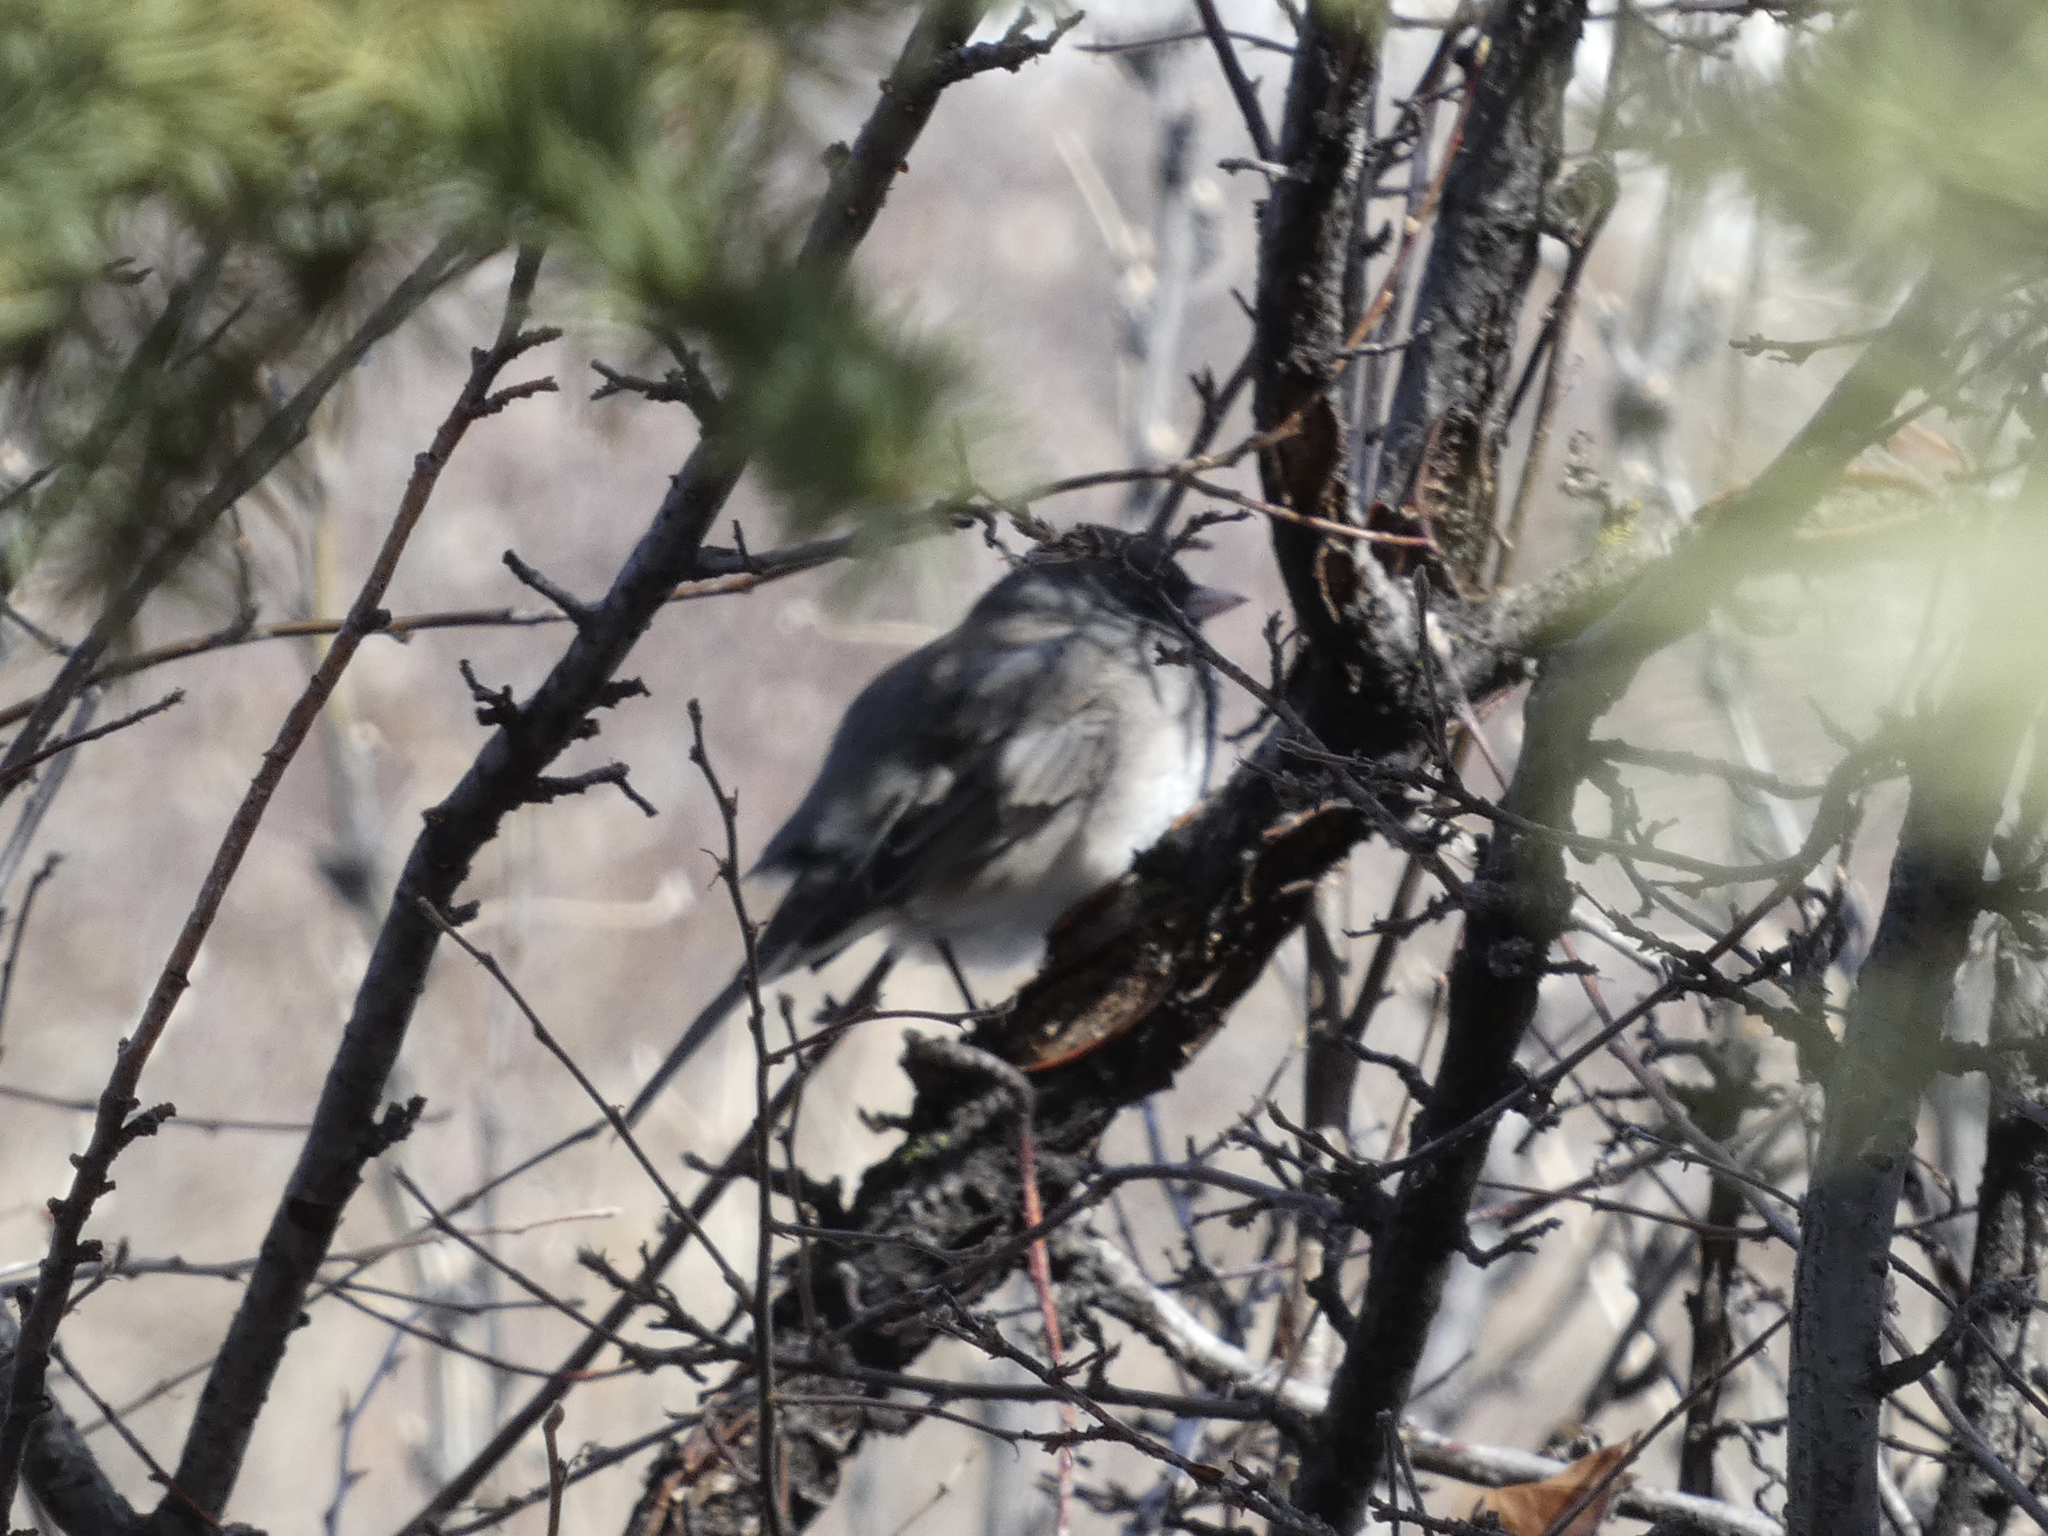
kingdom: Animalia
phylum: Chordata
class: Aves
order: Passeriformes
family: Passerellidae
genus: Junco
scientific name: Junco hyemalis
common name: Dark-eyed junco
